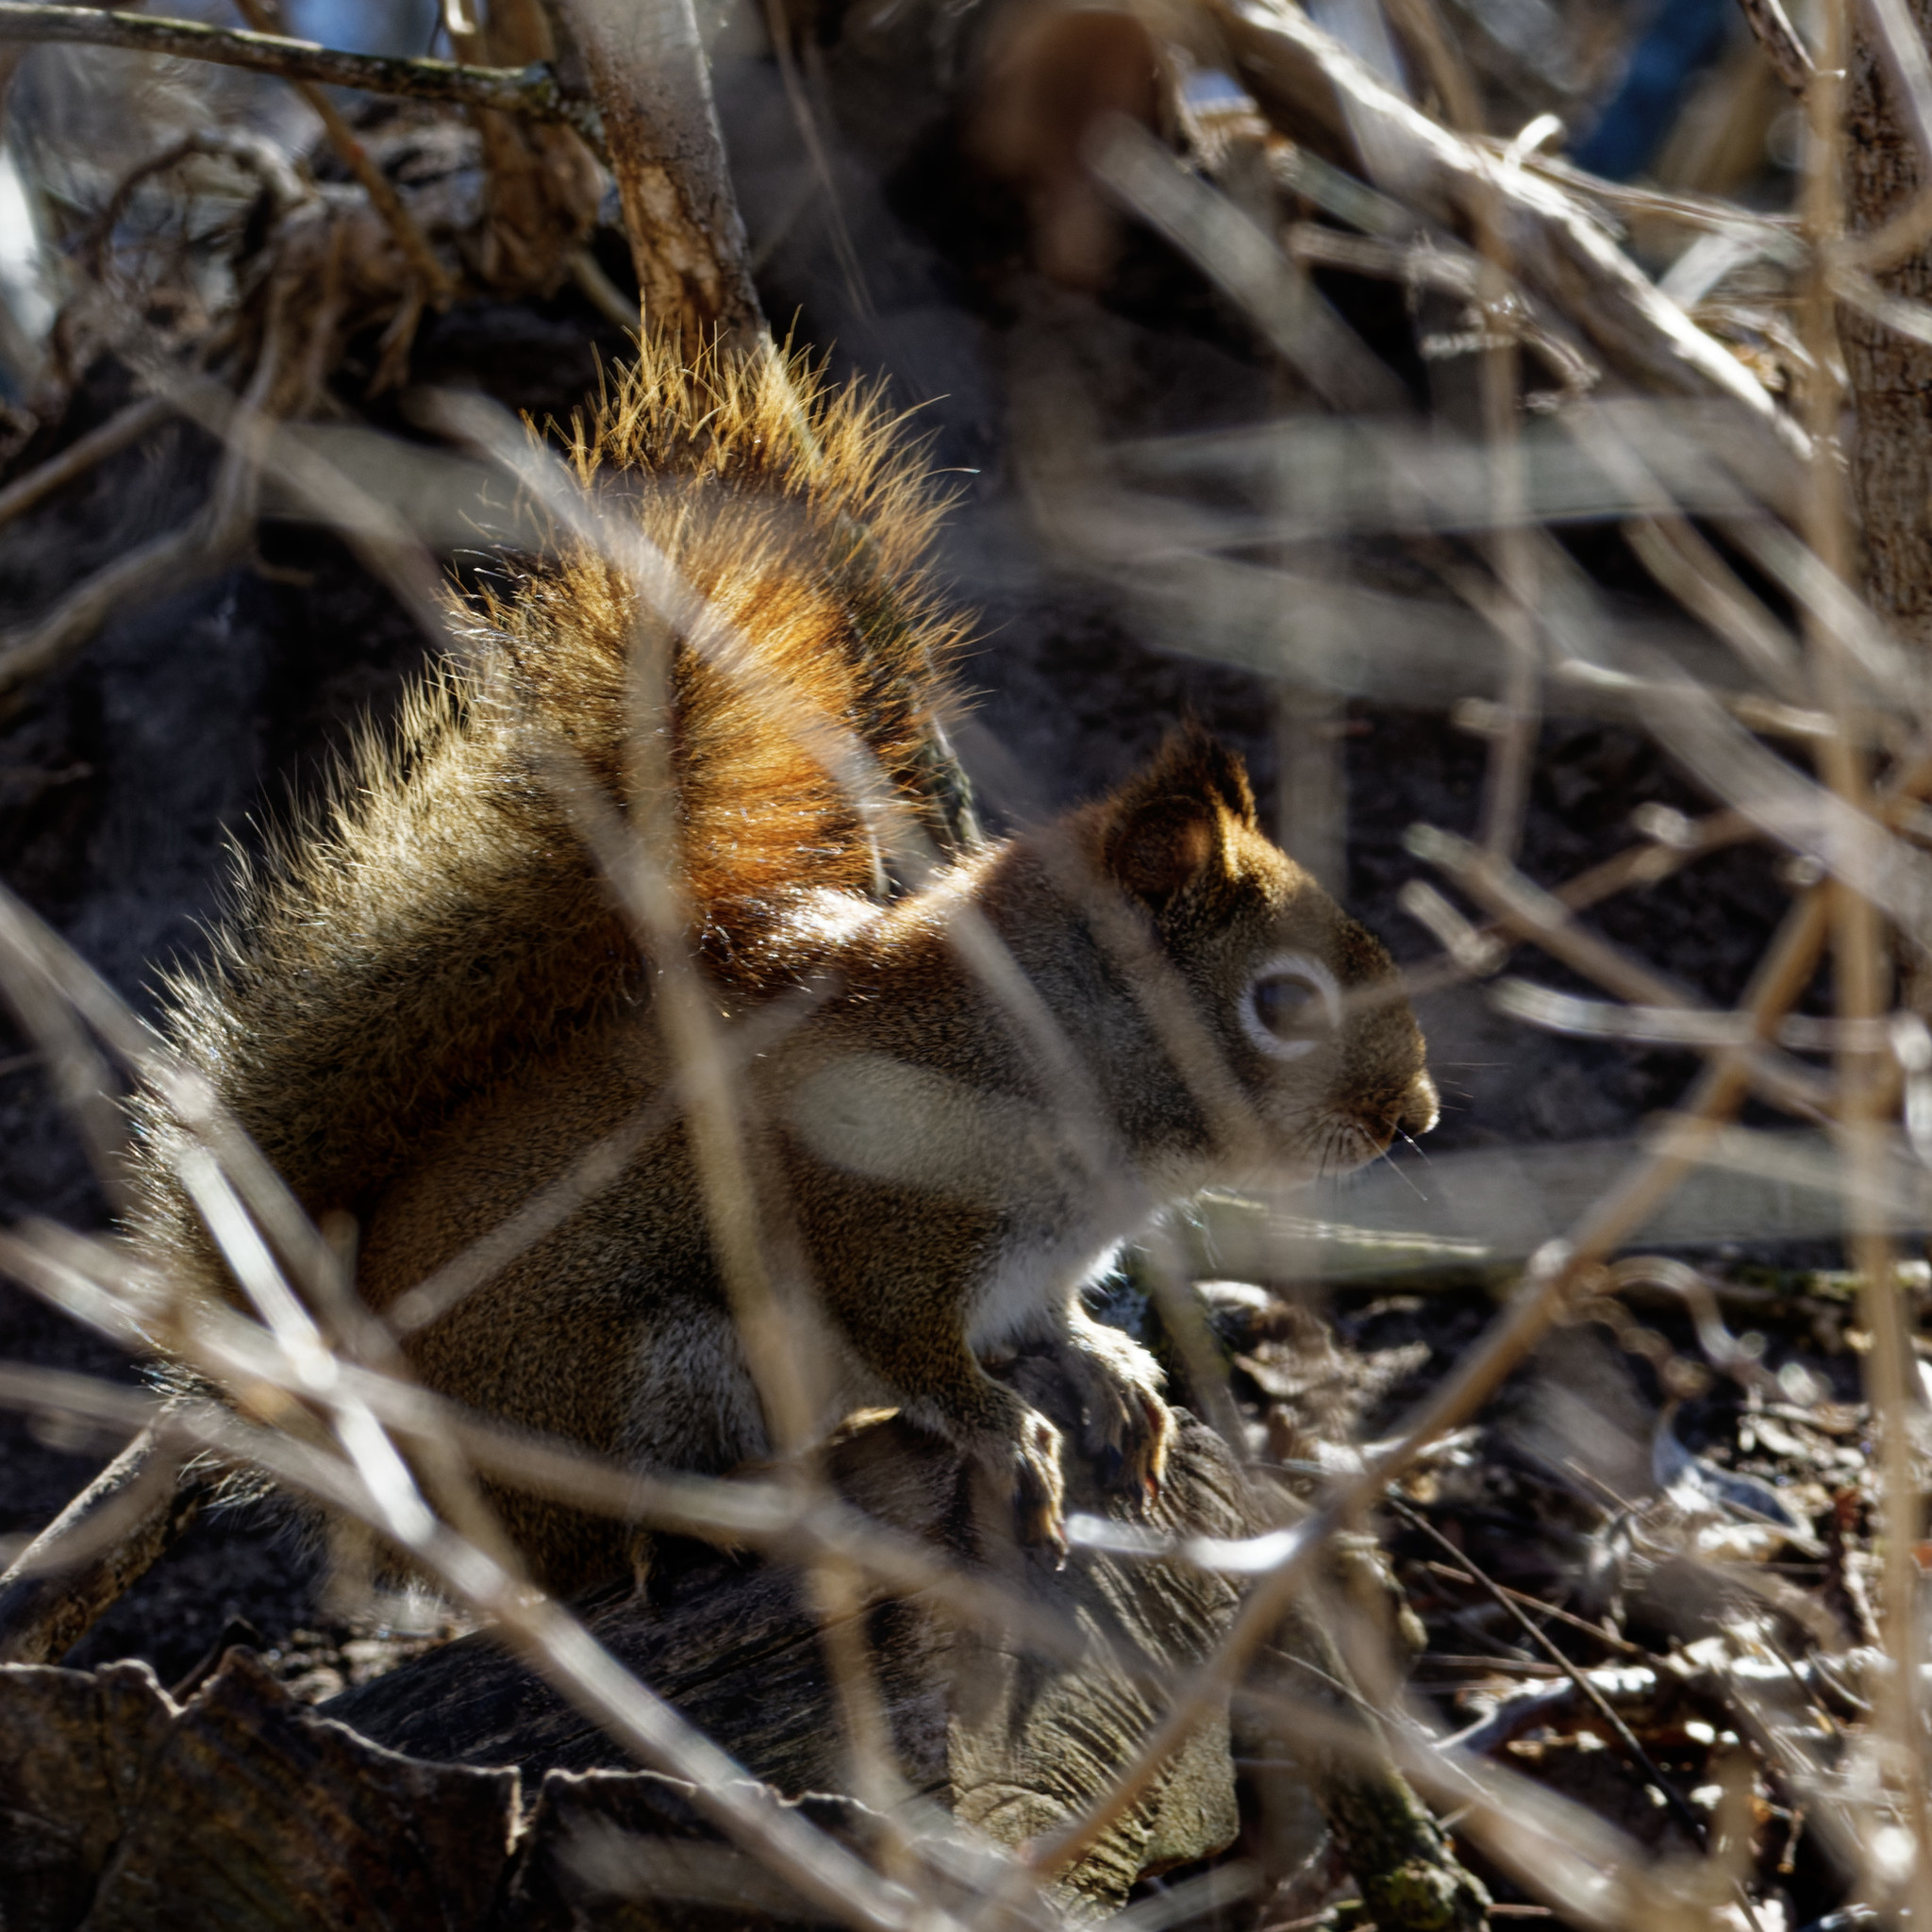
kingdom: Animalia
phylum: Chordata
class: Mammalia
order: Rodentia
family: Sciuridae
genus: Tamiasciurus
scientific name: Tamiasciurus hudsonicus
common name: Red squirrel
